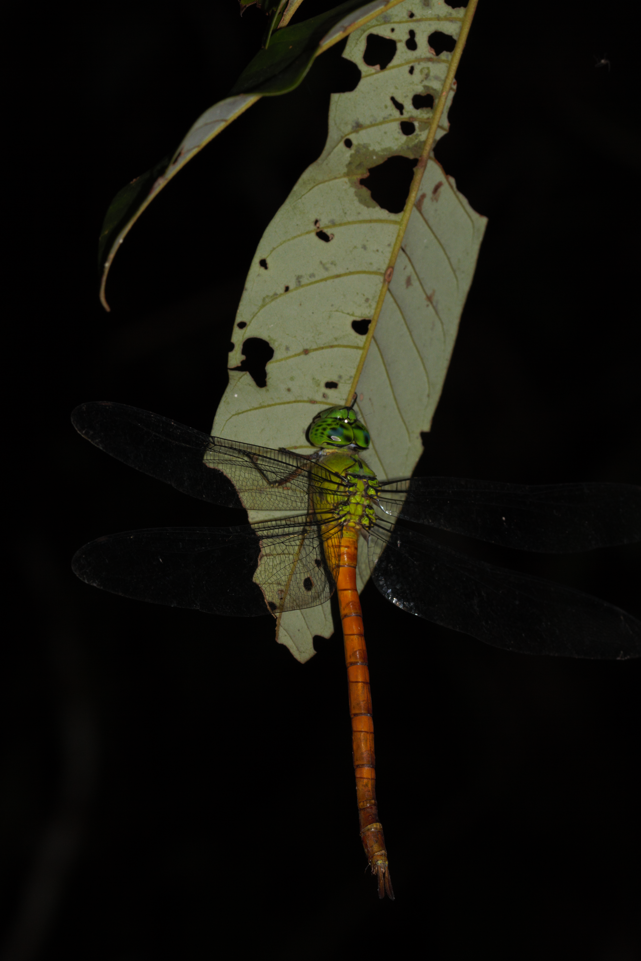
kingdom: Animalia
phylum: Arthropoda
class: Insecta
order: Odonata
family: Aeshnidae
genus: Staurophlebia
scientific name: Staurophlebia reticulata
